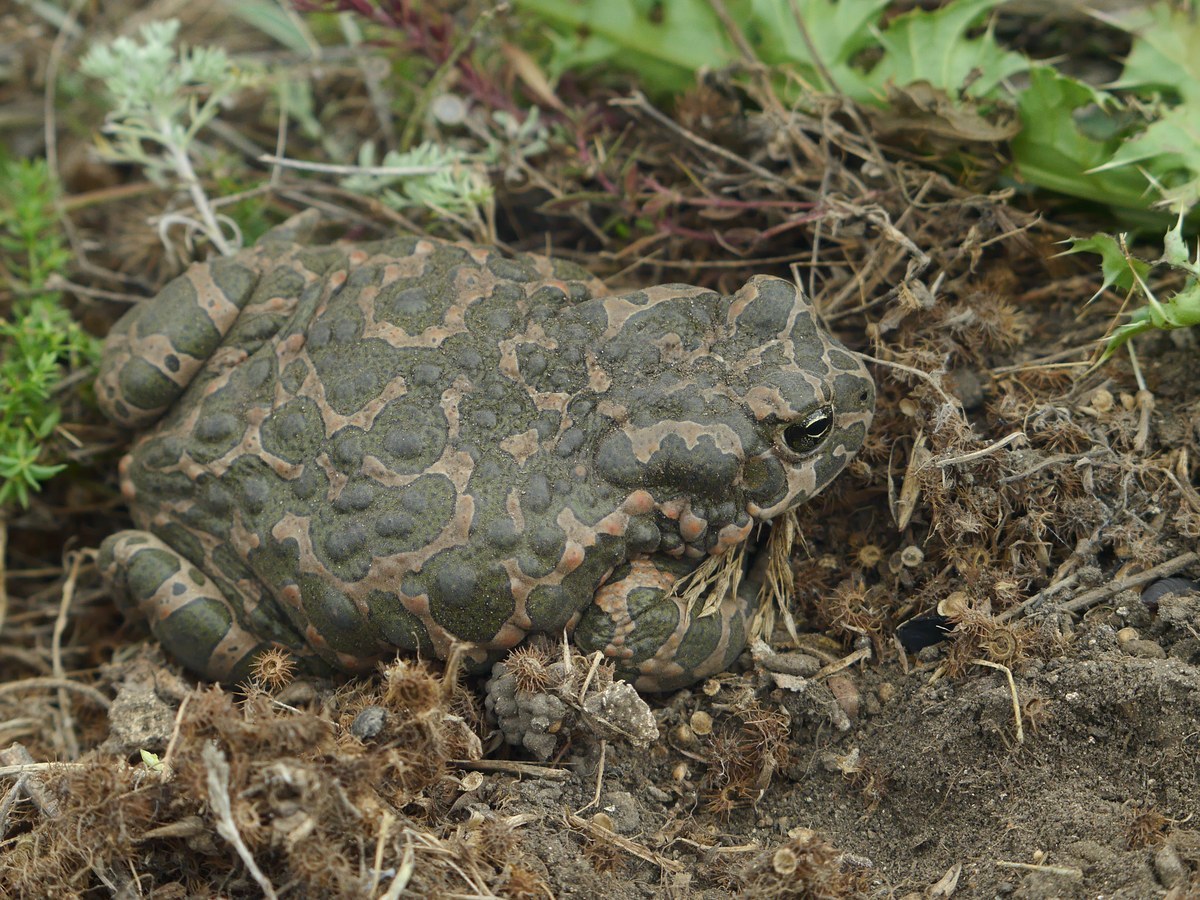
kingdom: Animalia
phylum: Chordata
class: Amphibia
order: Anura
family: Bufonidae
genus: Bufotes
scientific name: Bufotes viridis
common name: European green toad
